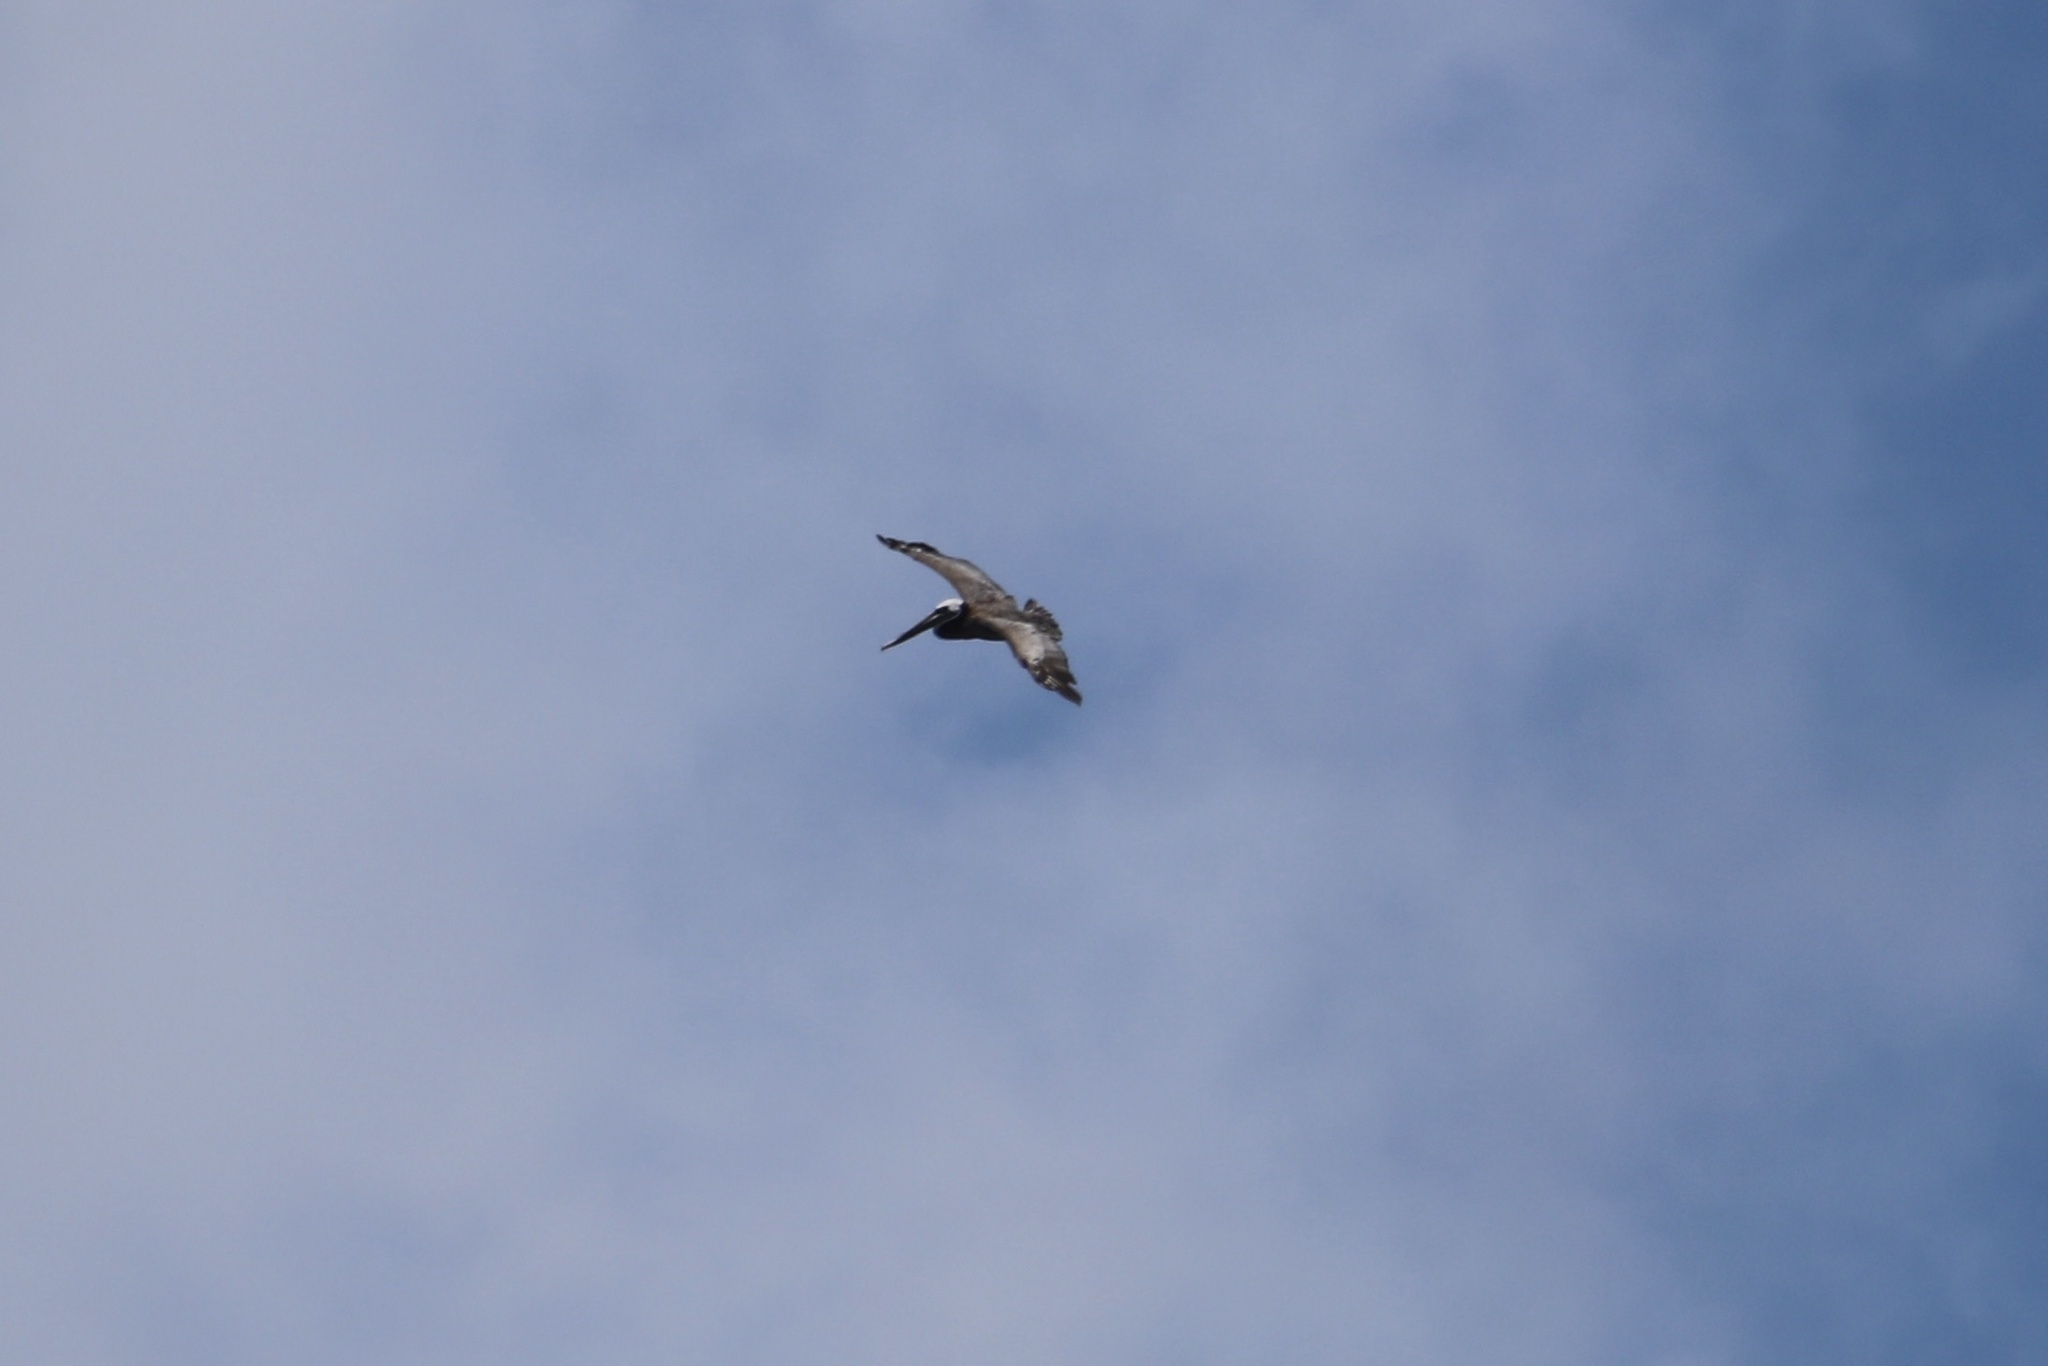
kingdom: Animalia
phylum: Chordata
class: Aves
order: Pelecaniformes
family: Pelecanidae
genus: Pelecanus
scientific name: Pelecanus occidentalis
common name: Brown pelican
